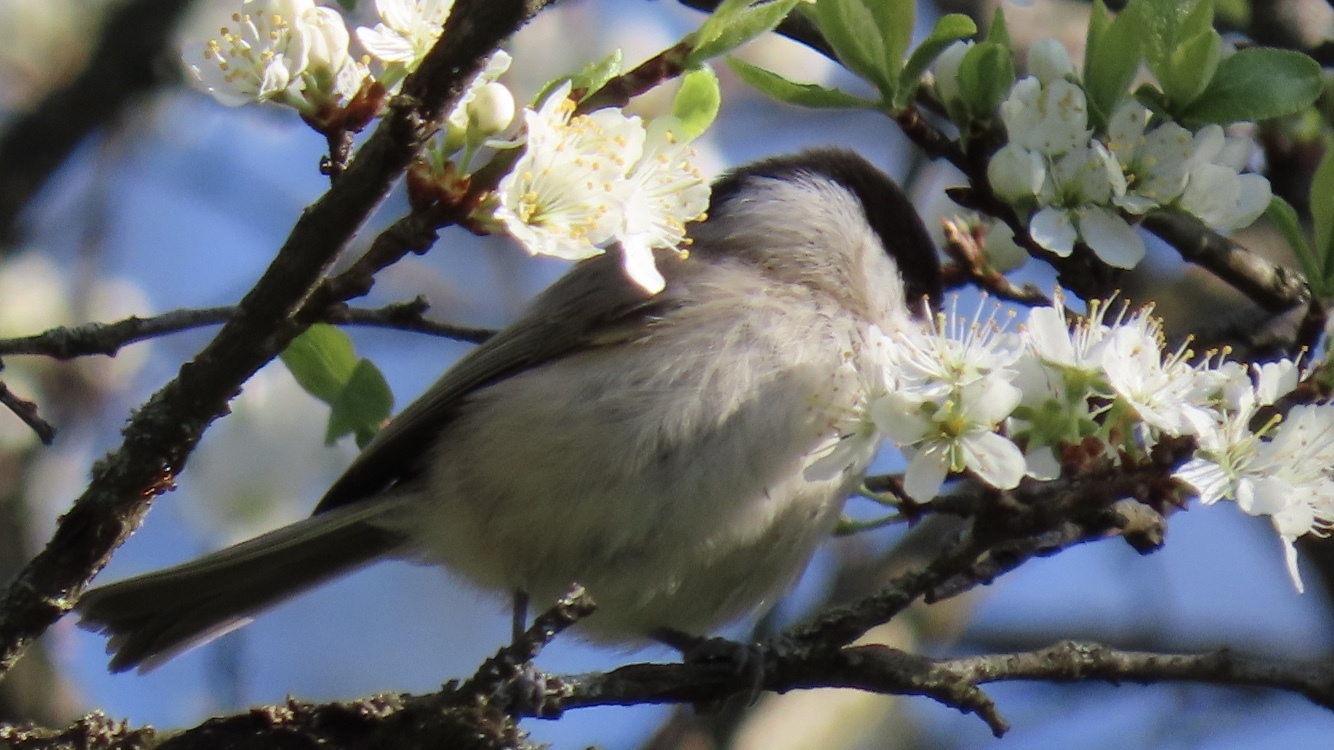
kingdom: Animalia
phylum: Chordata
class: Aves
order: Passeriformes
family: Paridae
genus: Poecile
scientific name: Poecile palustris
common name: Marsh tit
